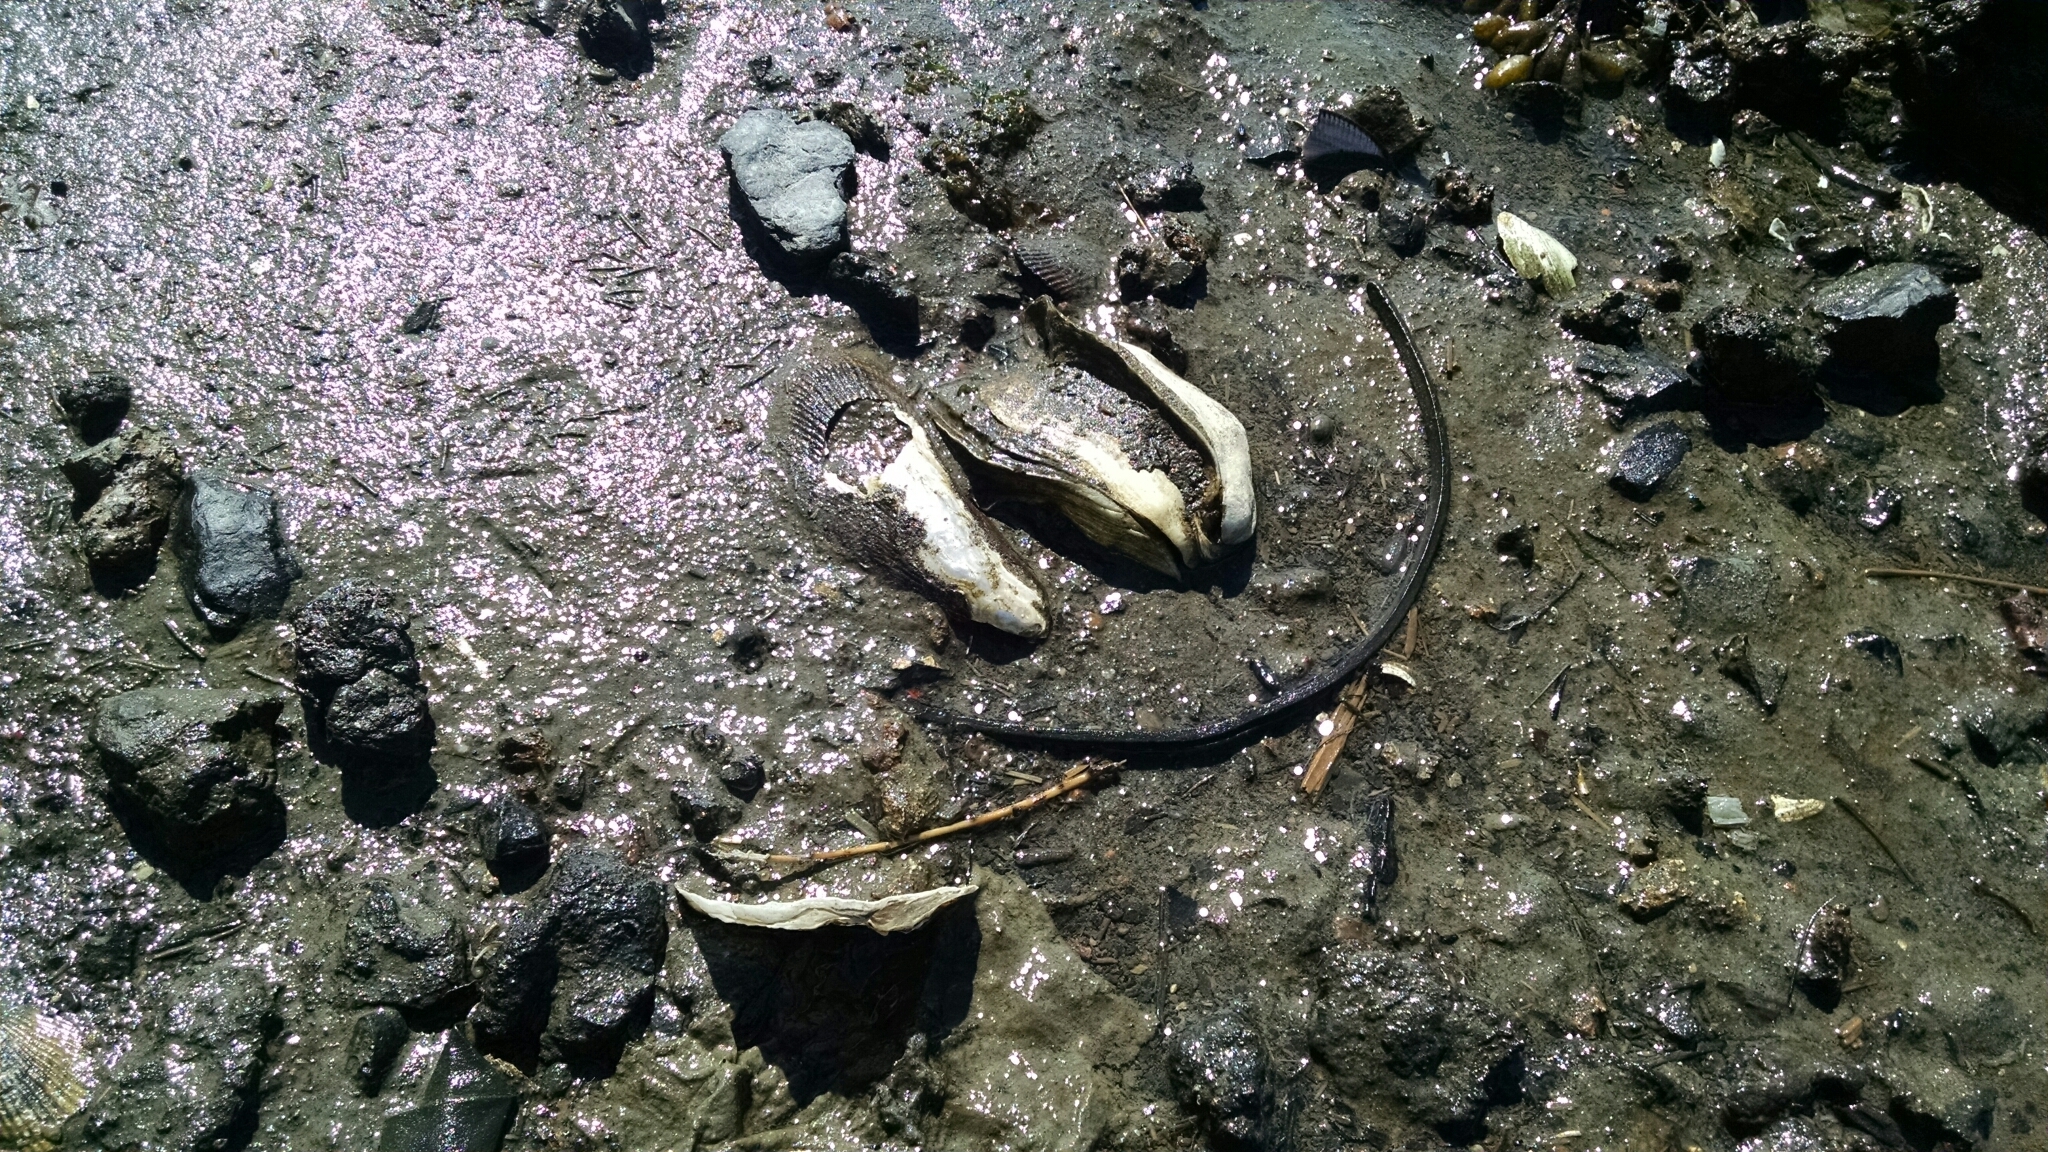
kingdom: Animalia
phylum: Mollusca
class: Bivalvia
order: Ostreida
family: Ostreidae
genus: Crassostrea
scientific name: Crassostrea virginica
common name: American oyster
